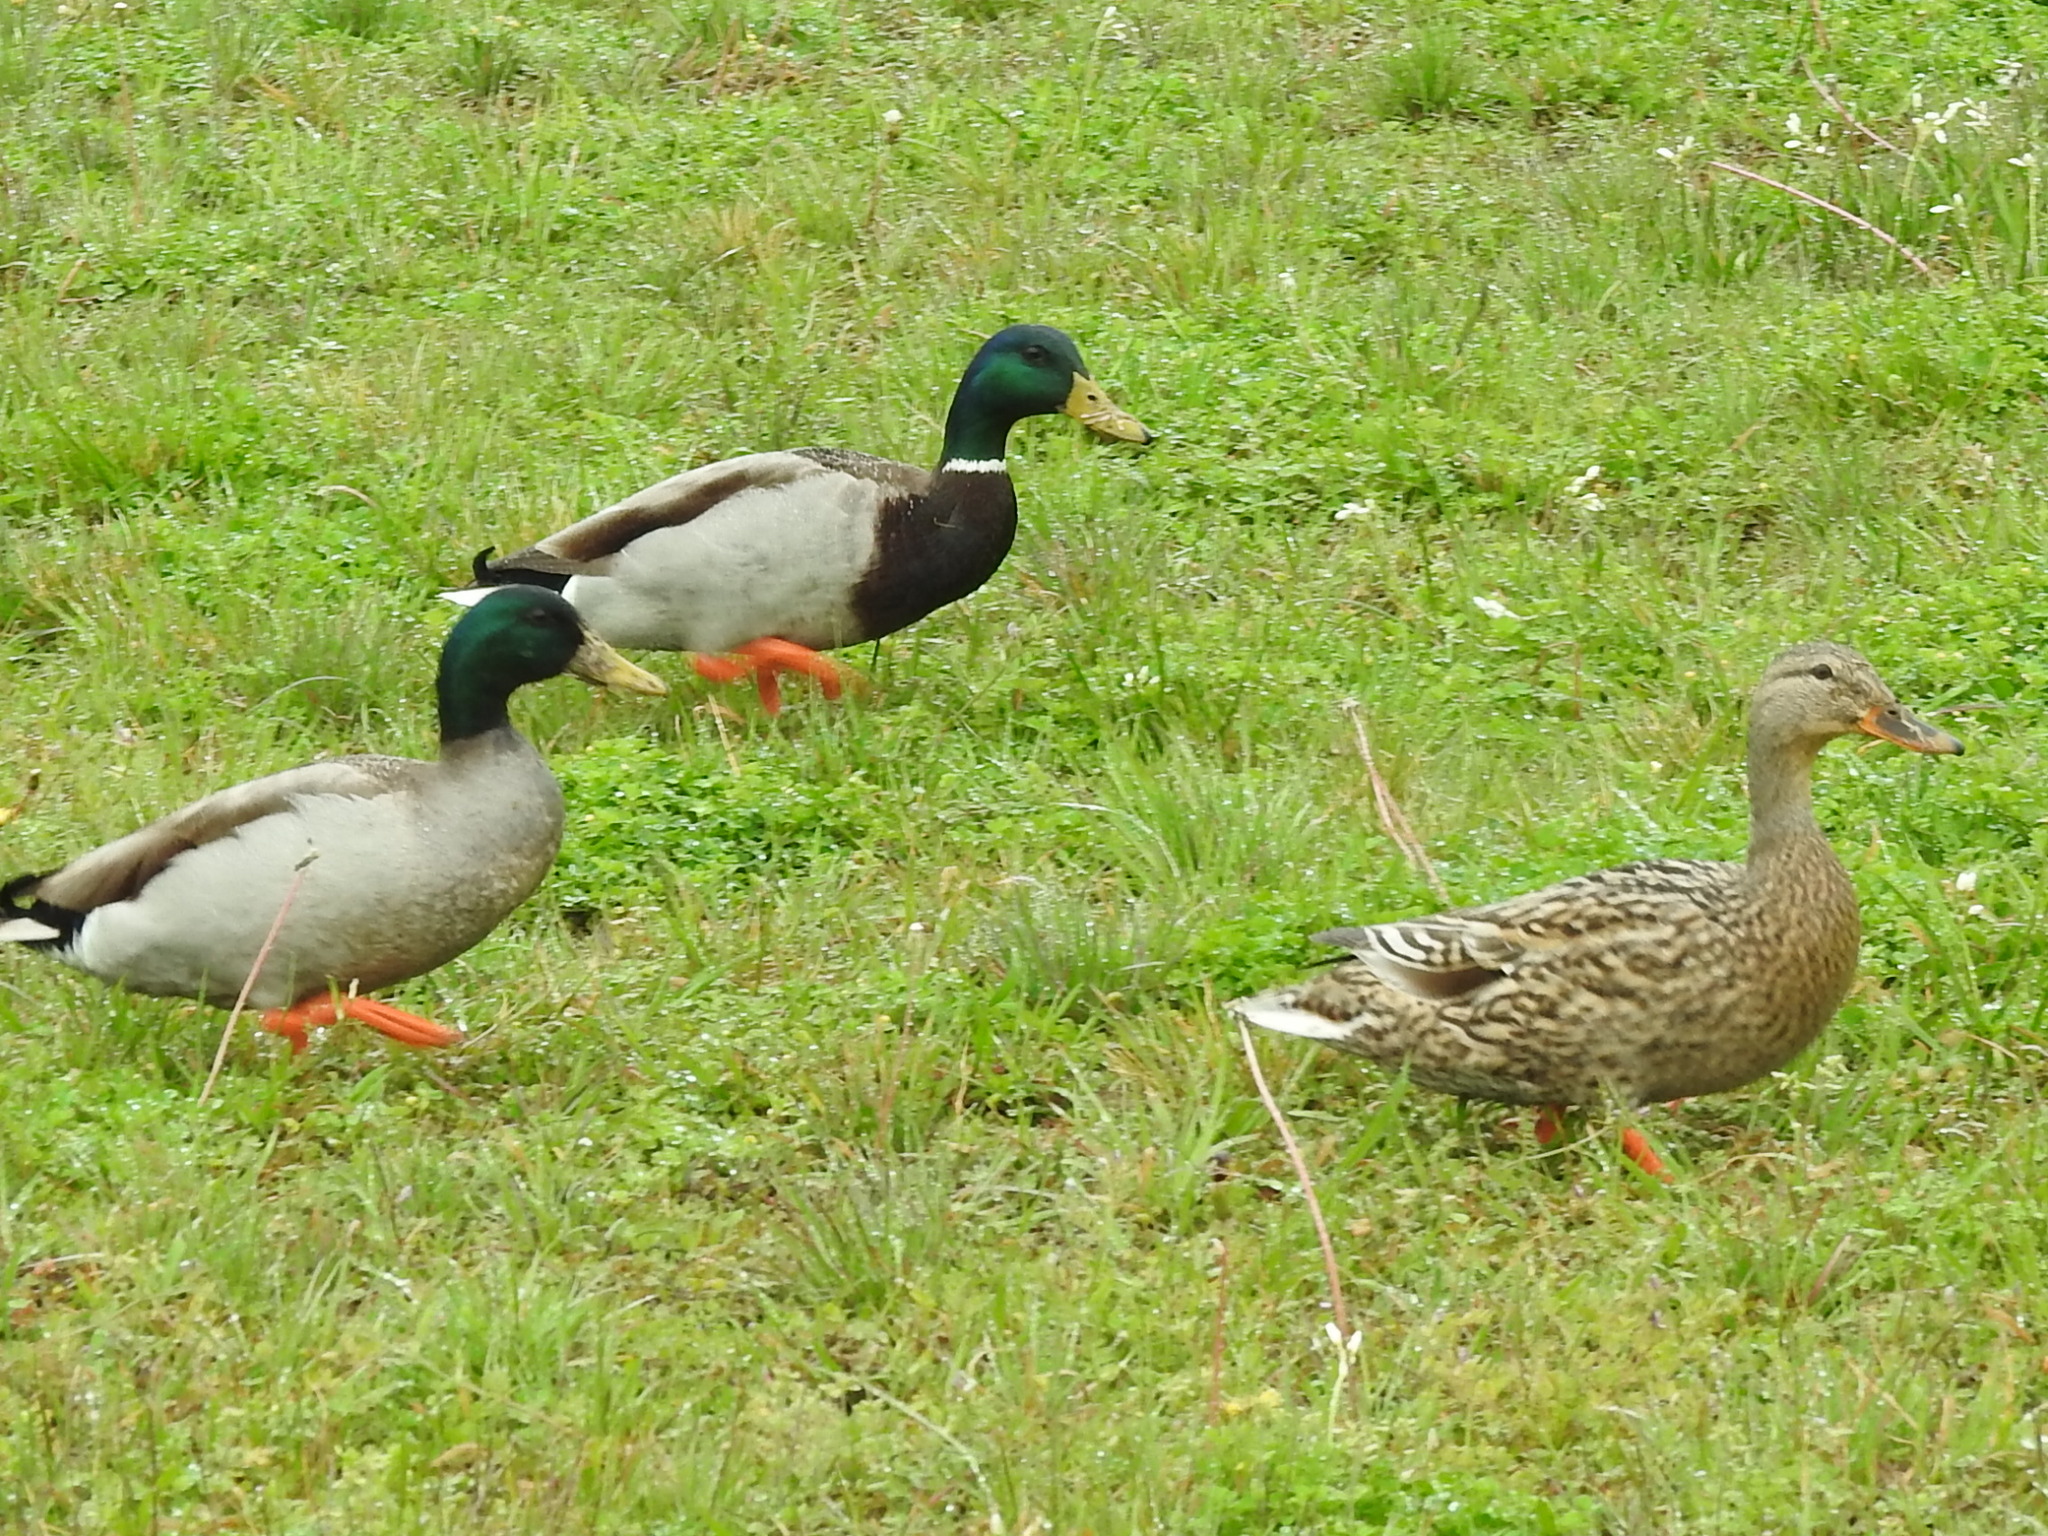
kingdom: Animalia
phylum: Chordata
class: Aves
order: Anseriformes
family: Anatidae
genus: Anas
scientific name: Anas platyrhynchos
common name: Mallard
